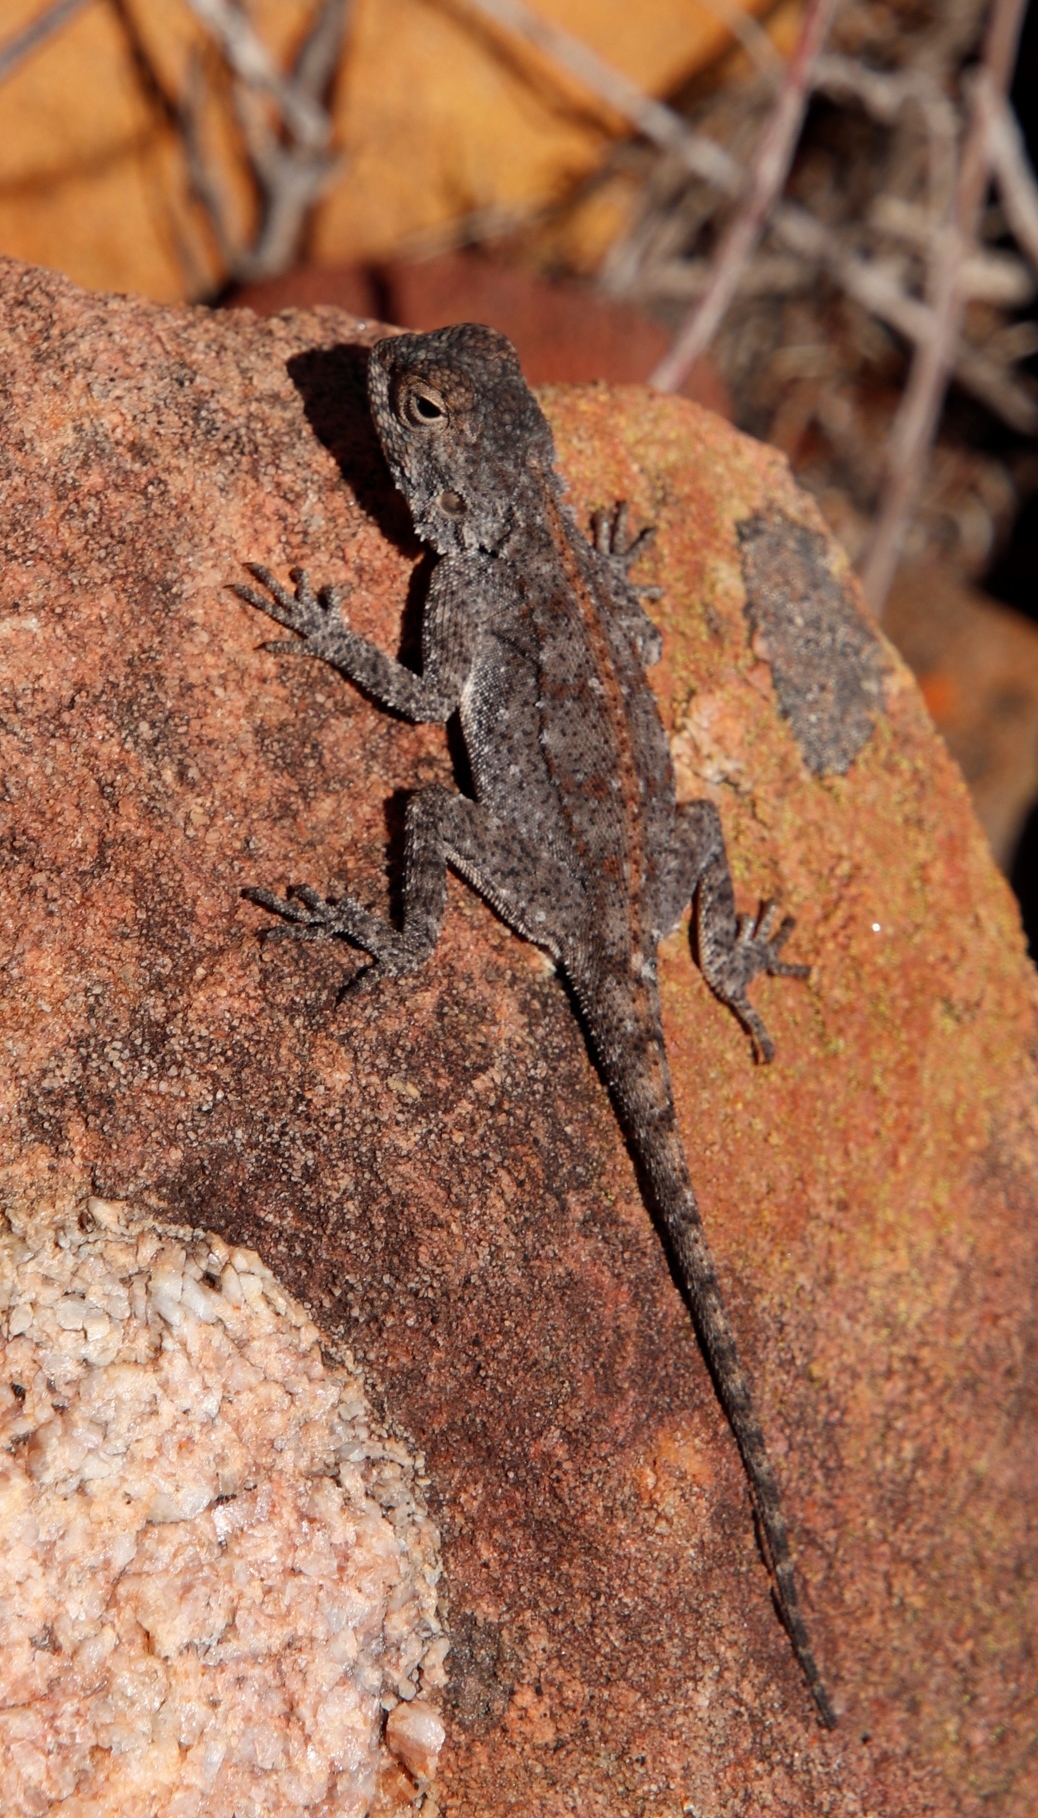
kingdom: Animalia
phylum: Chordata
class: Squamata
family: Agamidae
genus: Agama
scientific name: Agama atra
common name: Southern african rock agama
